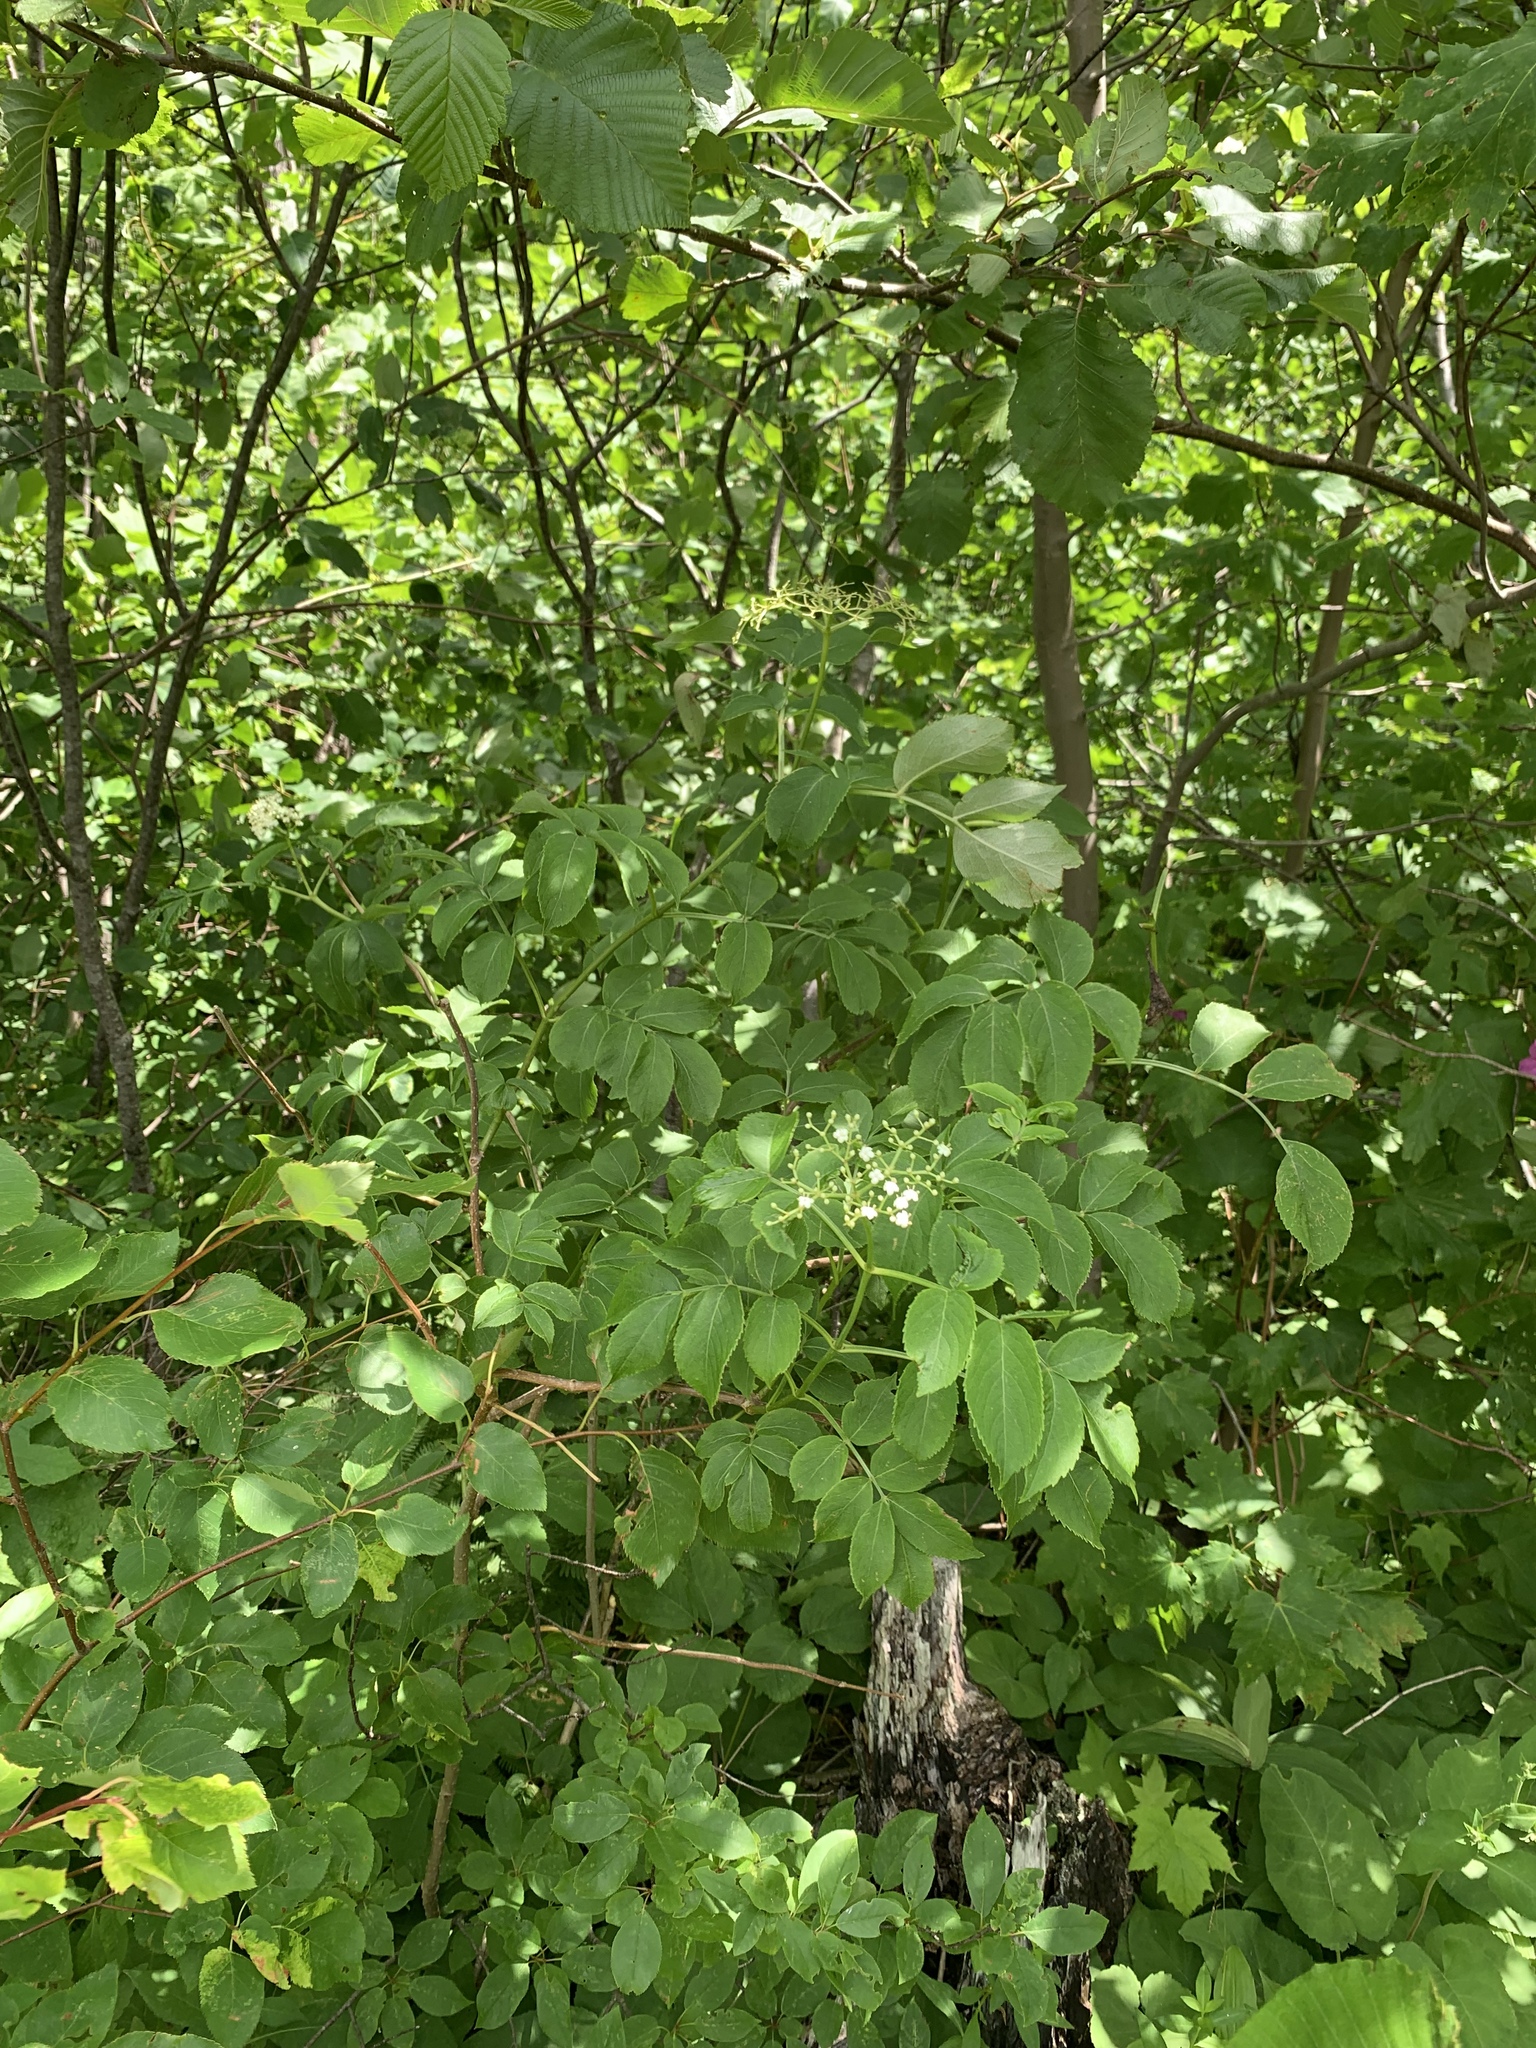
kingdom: Plantae
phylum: Tracheophyta
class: Magnoliopsida
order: Dipsacales
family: Viburnaceae
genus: Sambucus
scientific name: Sambucus canadensis
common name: American elder
